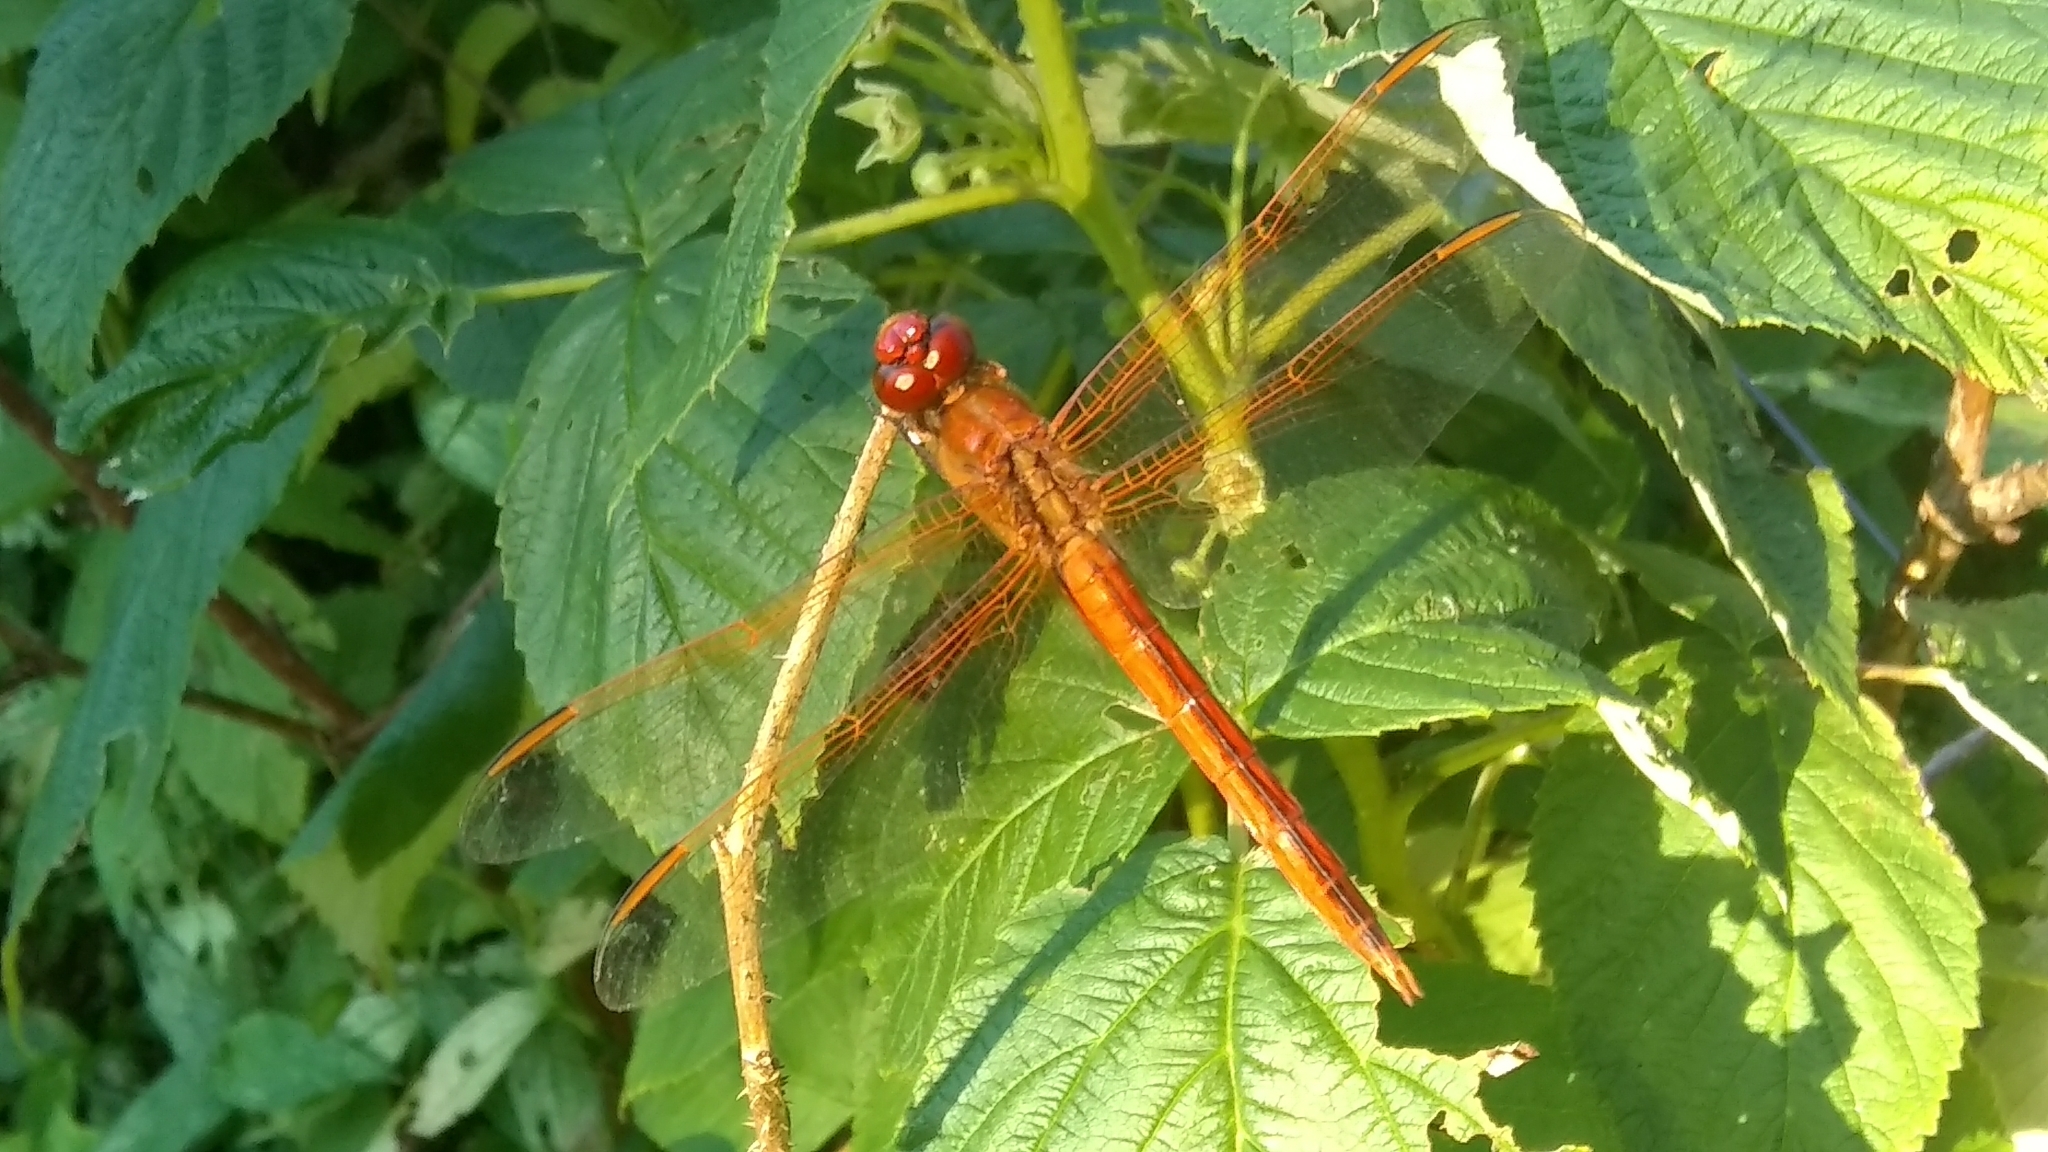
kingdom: Animalia
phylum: Arthropoda
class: Insecta
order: Odonata
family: Libellulidae
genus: Libellula
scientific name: Libellula needhami
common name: Needham's skimmer
